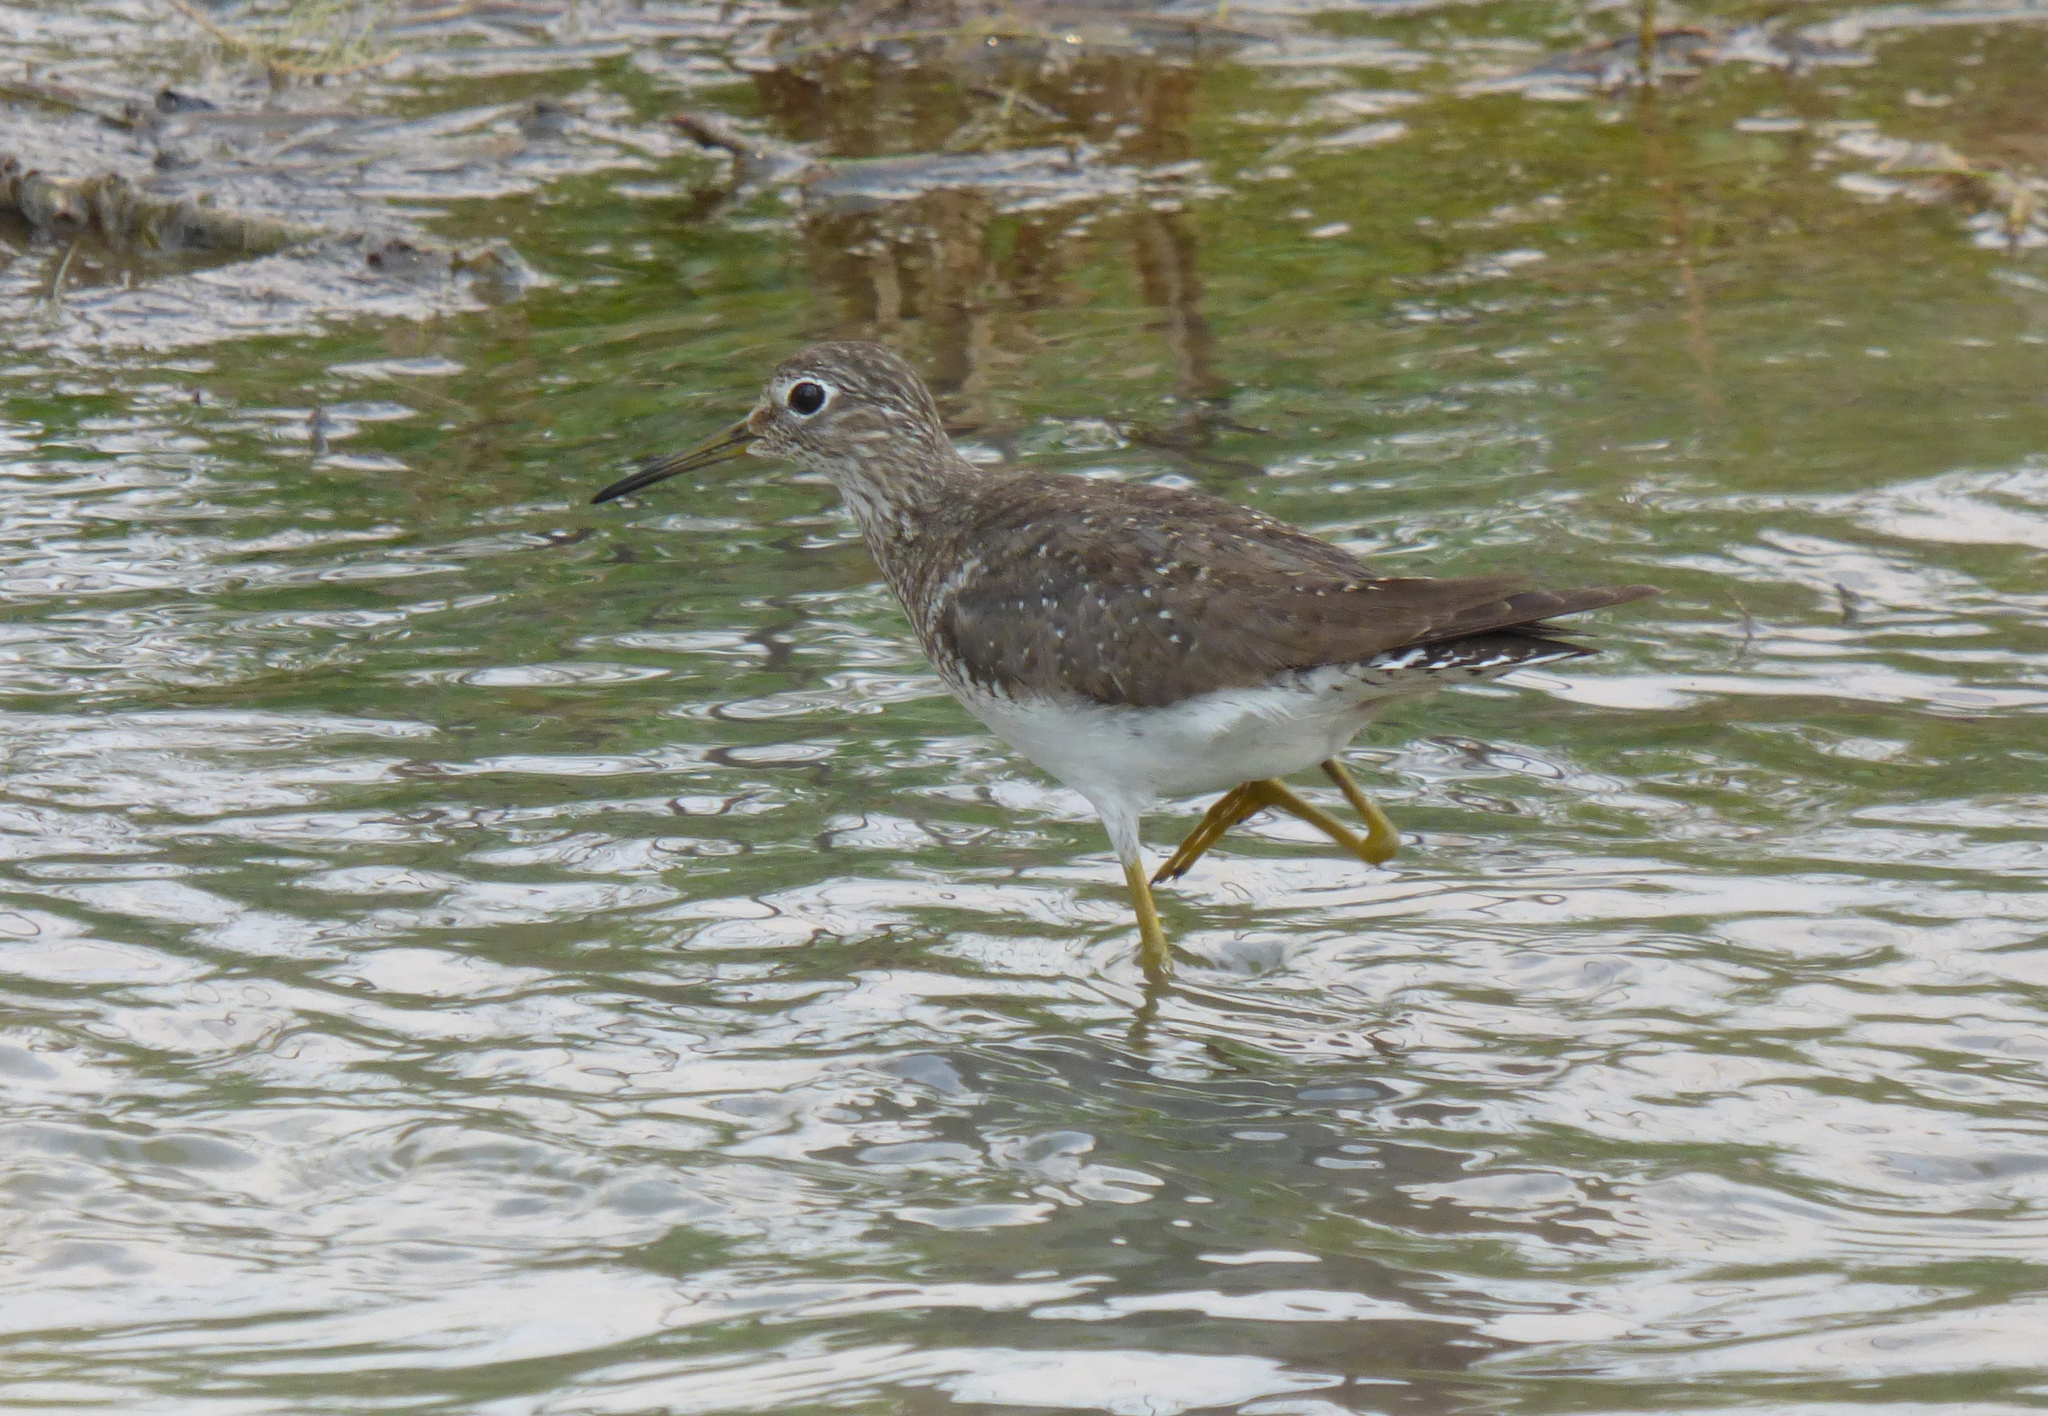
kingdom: Animalia
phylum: Chordata
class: Aves
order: Charadriiformes
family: Scolopacidae
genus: Tringa
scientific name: Tringa solitaria
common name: Solitary sandpiper
